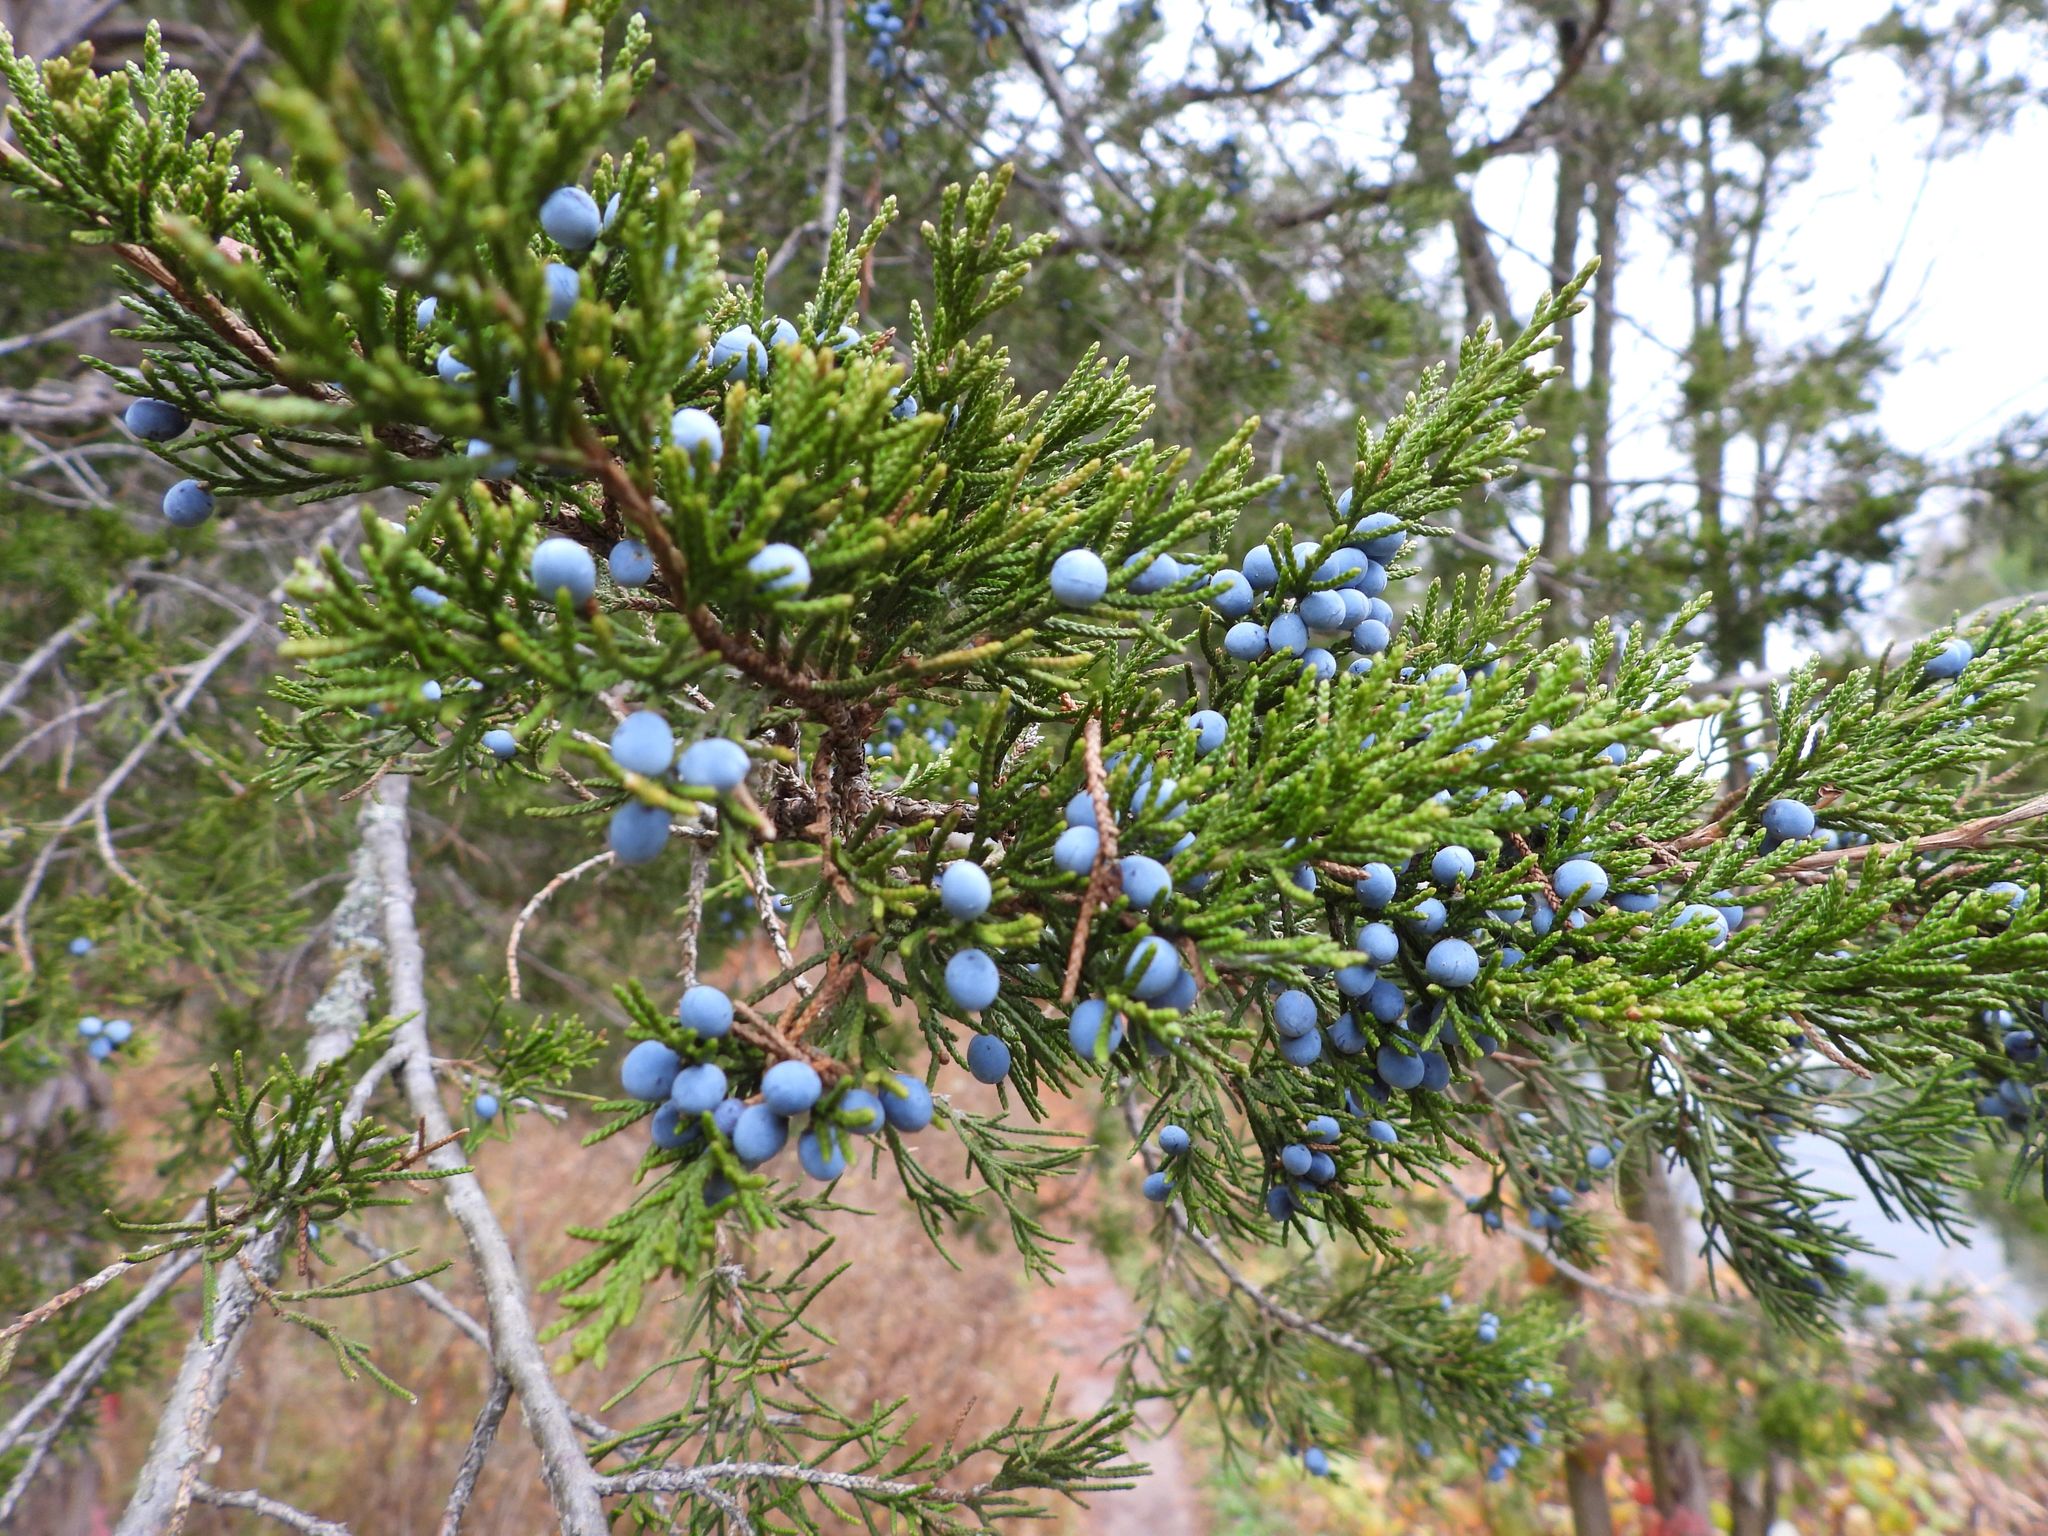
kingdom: Plantae
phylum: Tracheophyta
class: Pinopsida
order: Pinales
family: Cupressaceae
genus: Juniperus
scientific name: Juniperus virginiana
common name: Red juniper
